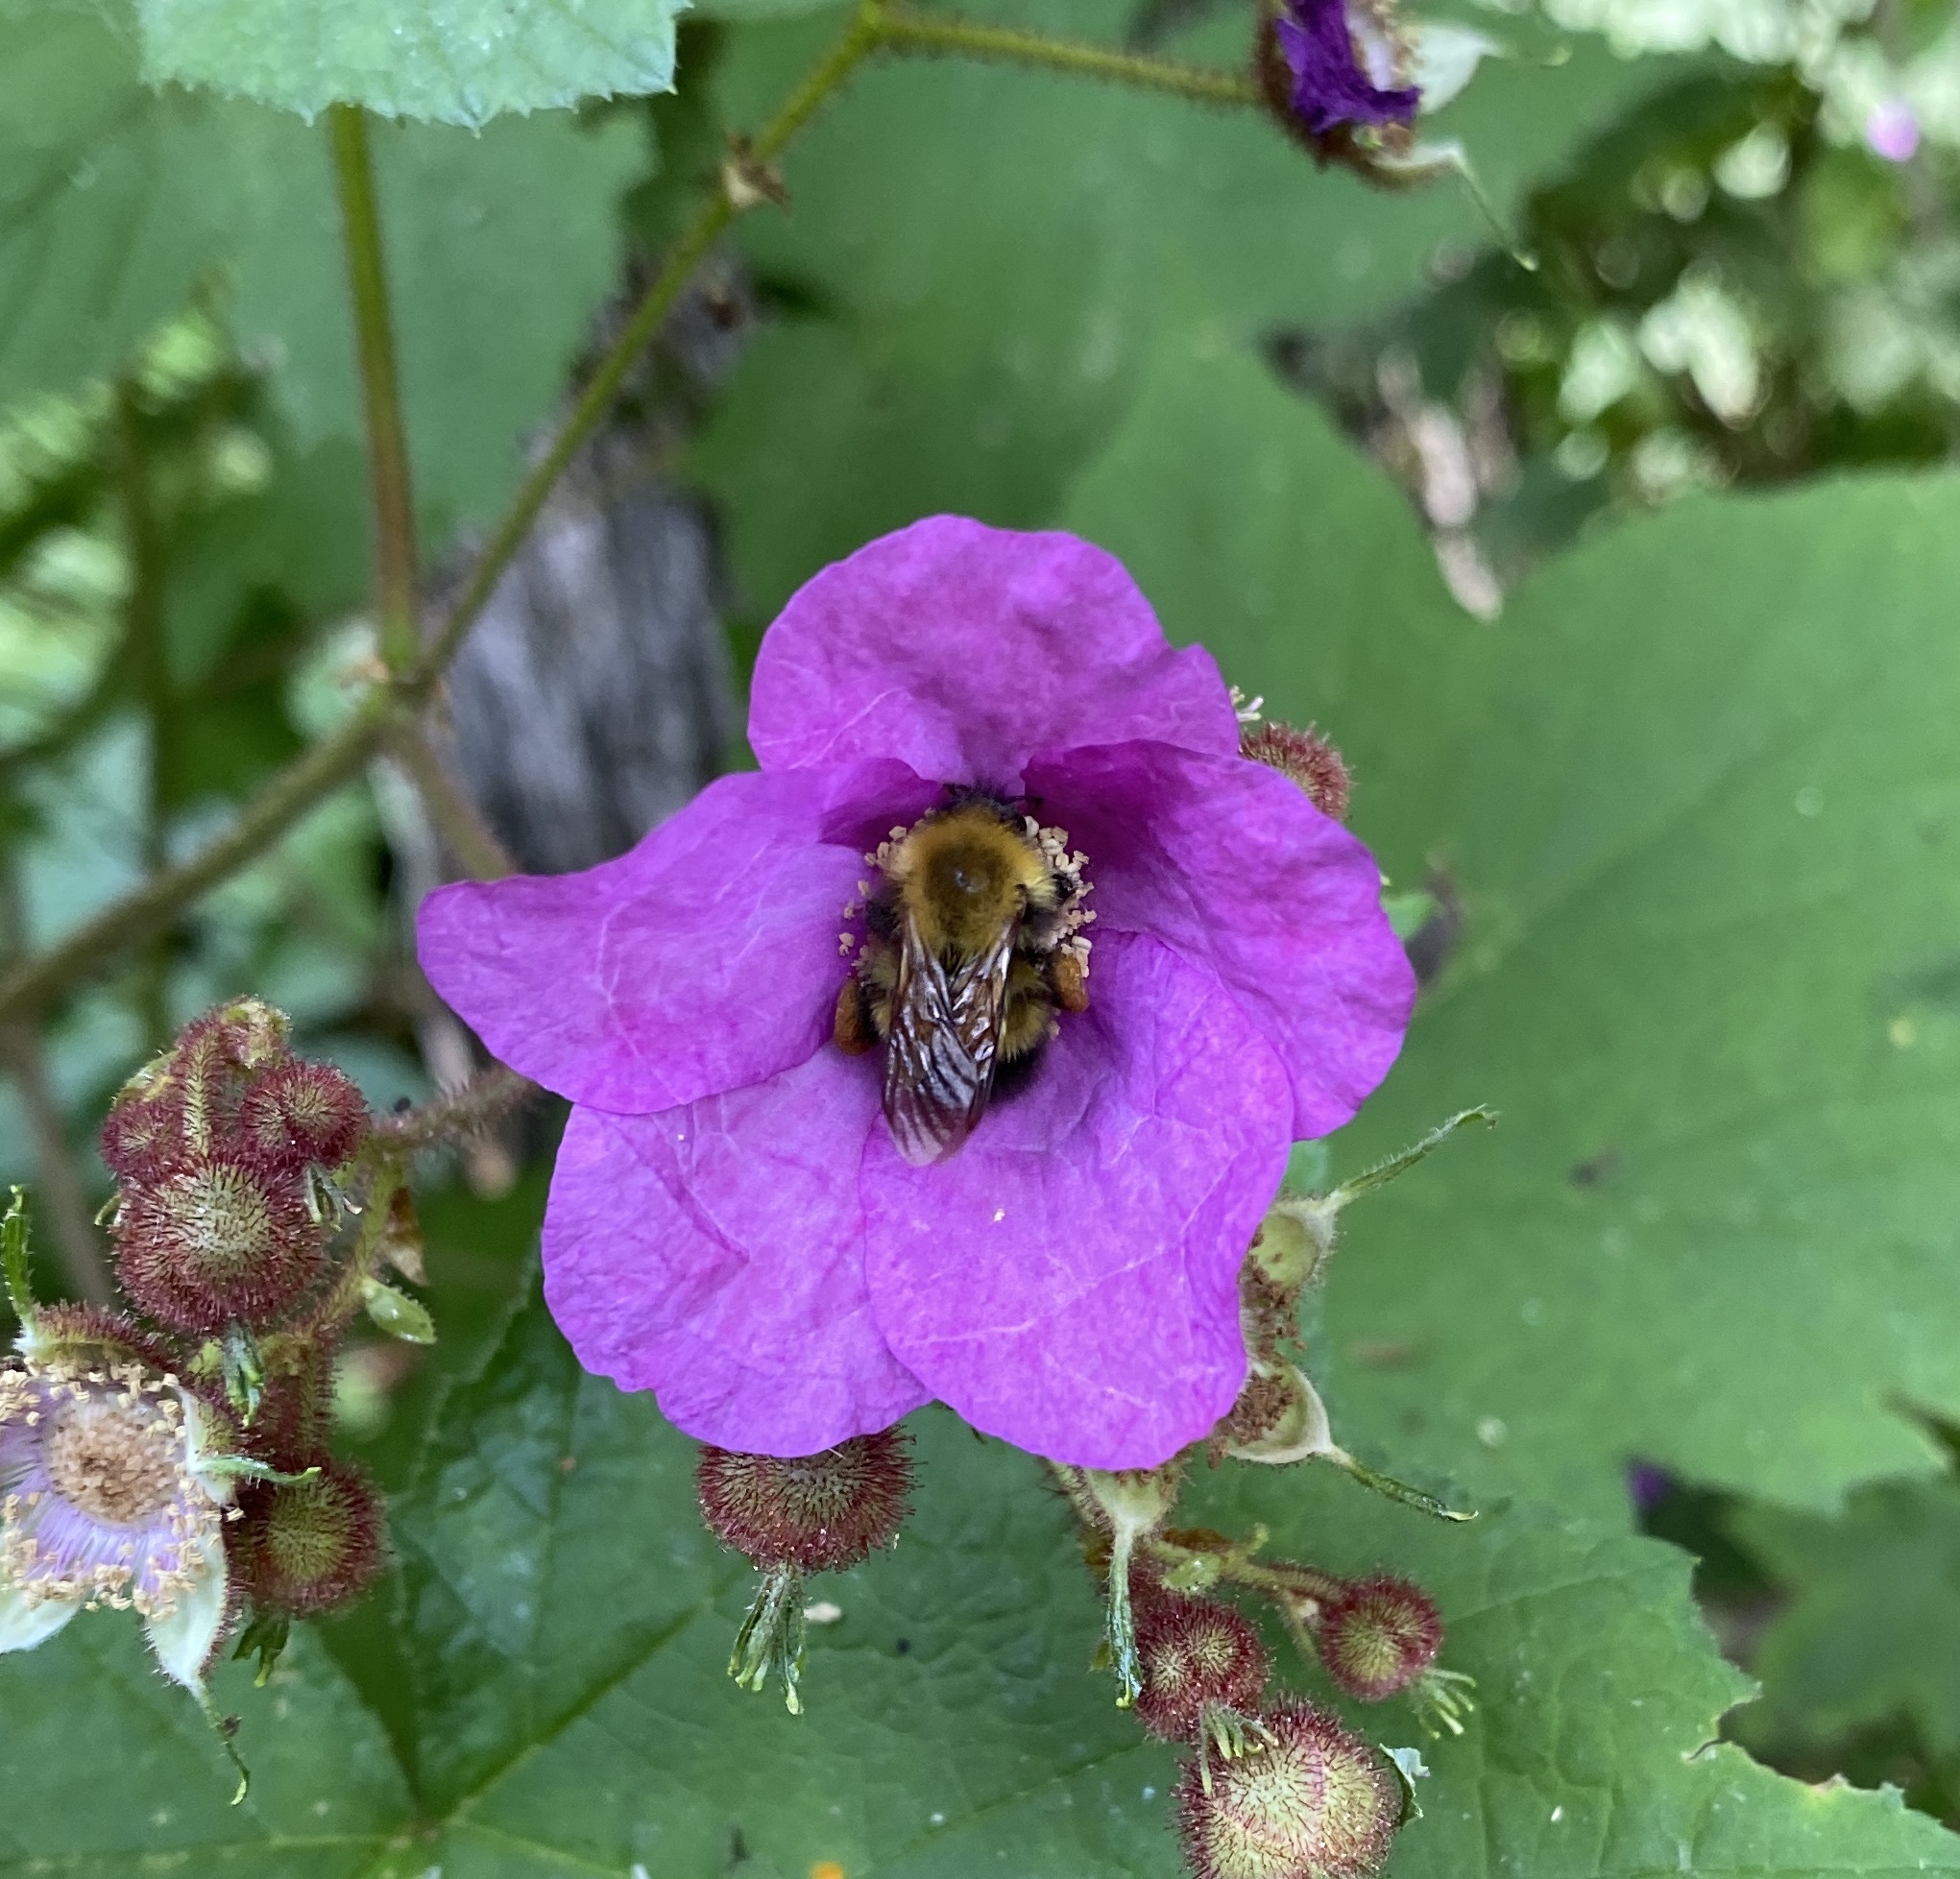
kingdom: Animalia
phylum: Arthropoda
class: Insecta
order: Hymenoptera
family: Apidae
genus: Bombus
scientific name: Bombus perplexus
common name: Confusing bumble bee
